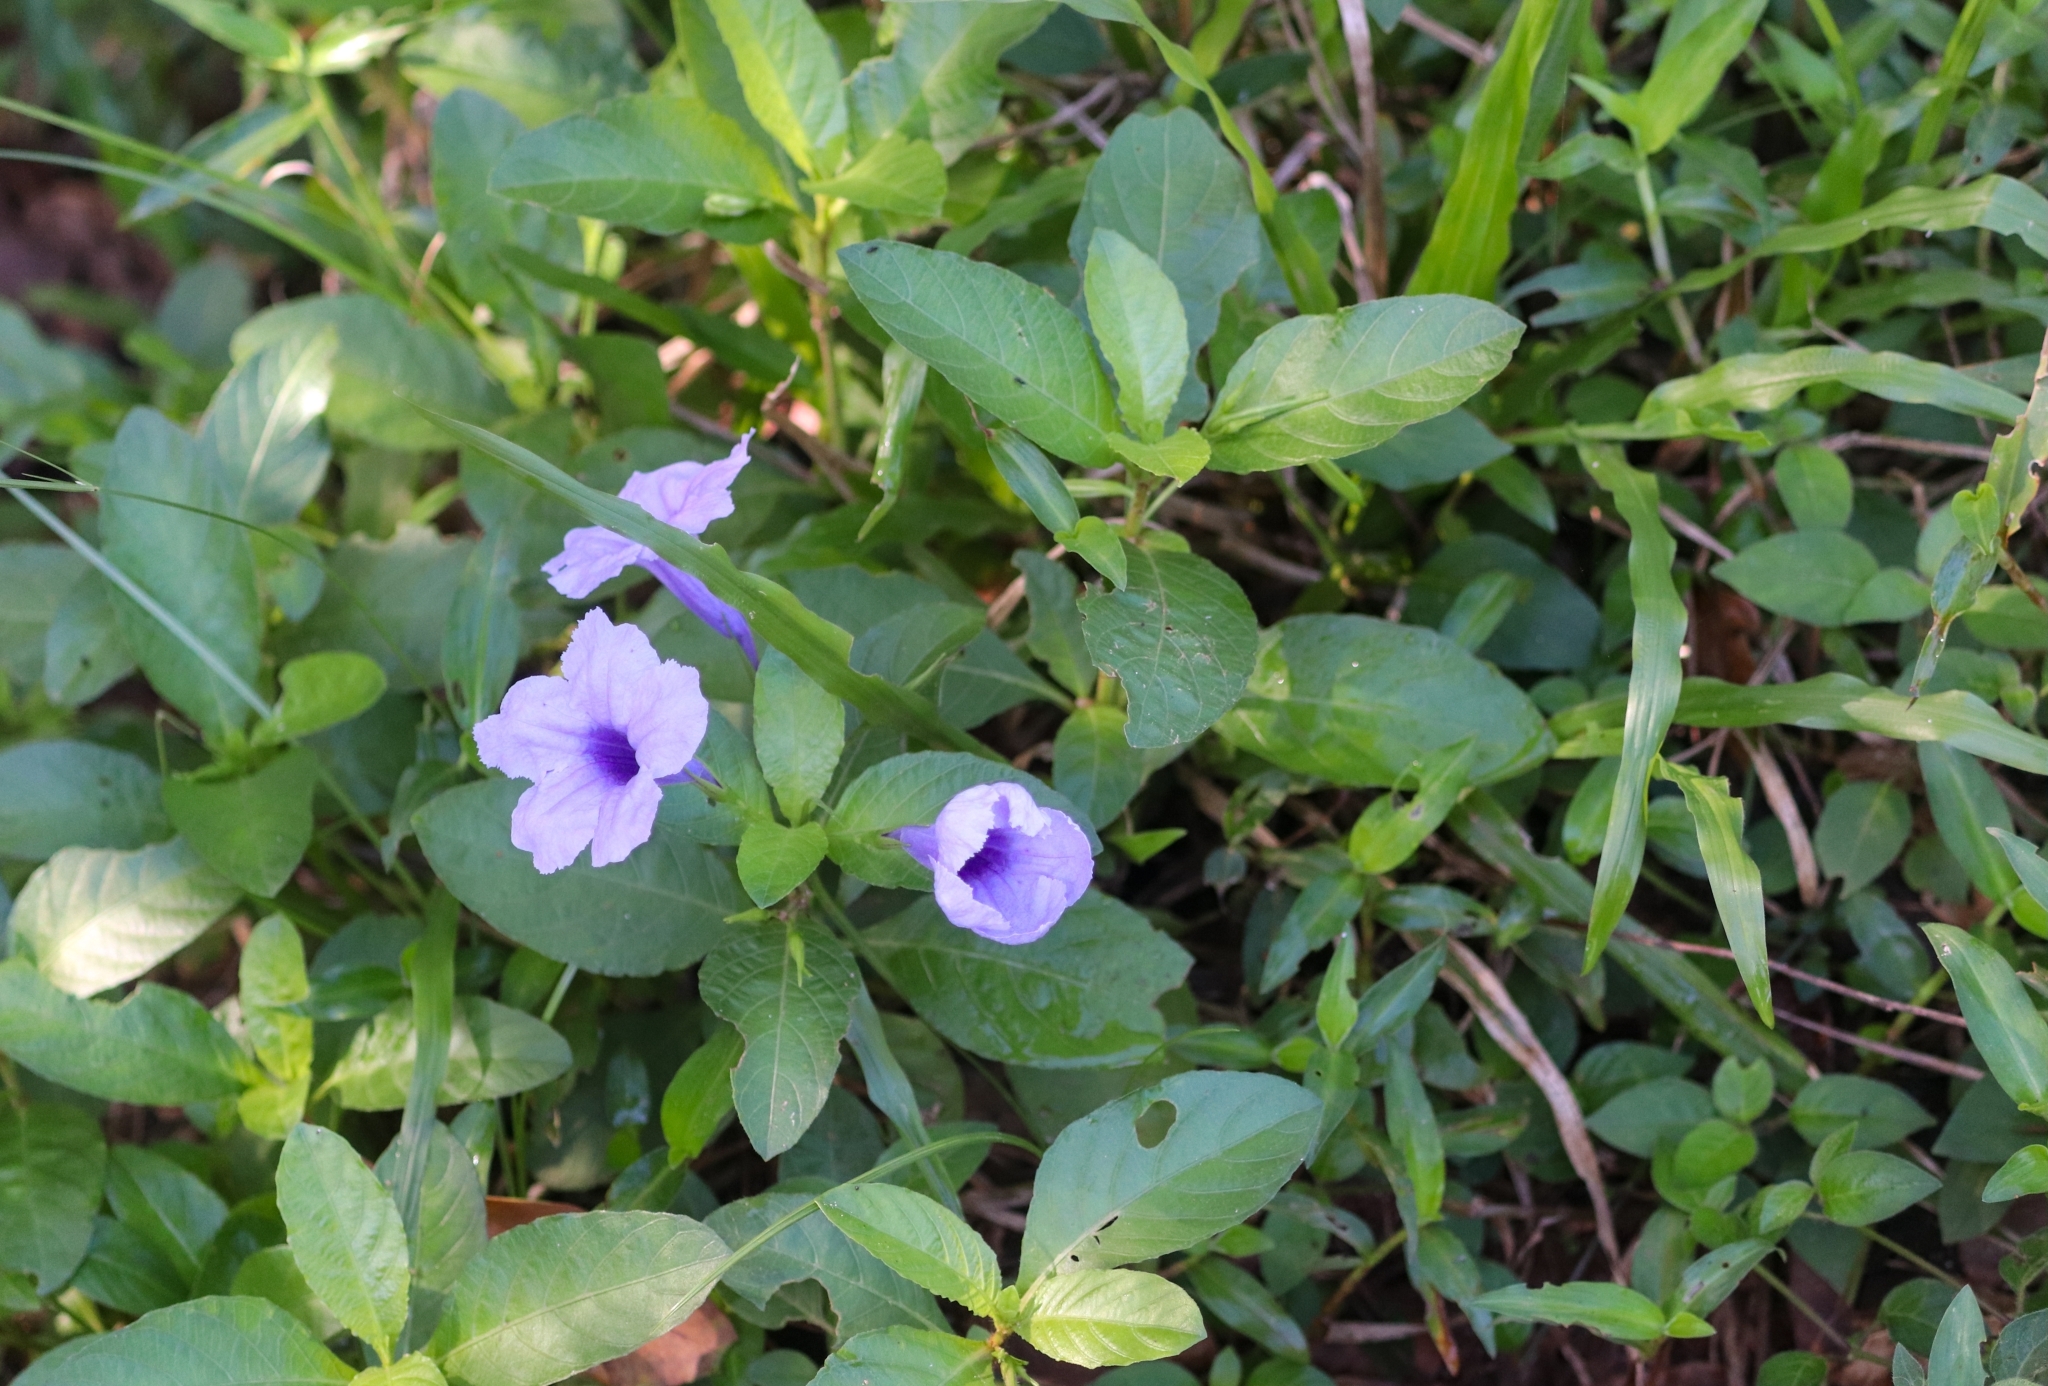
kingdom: Plantae
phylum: Tracheophyta
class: Magnoliopsida
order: Lamiales
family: Acanthaceae
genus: Ruellia
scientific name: Ruellia tuberosa
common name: Devil's bit
